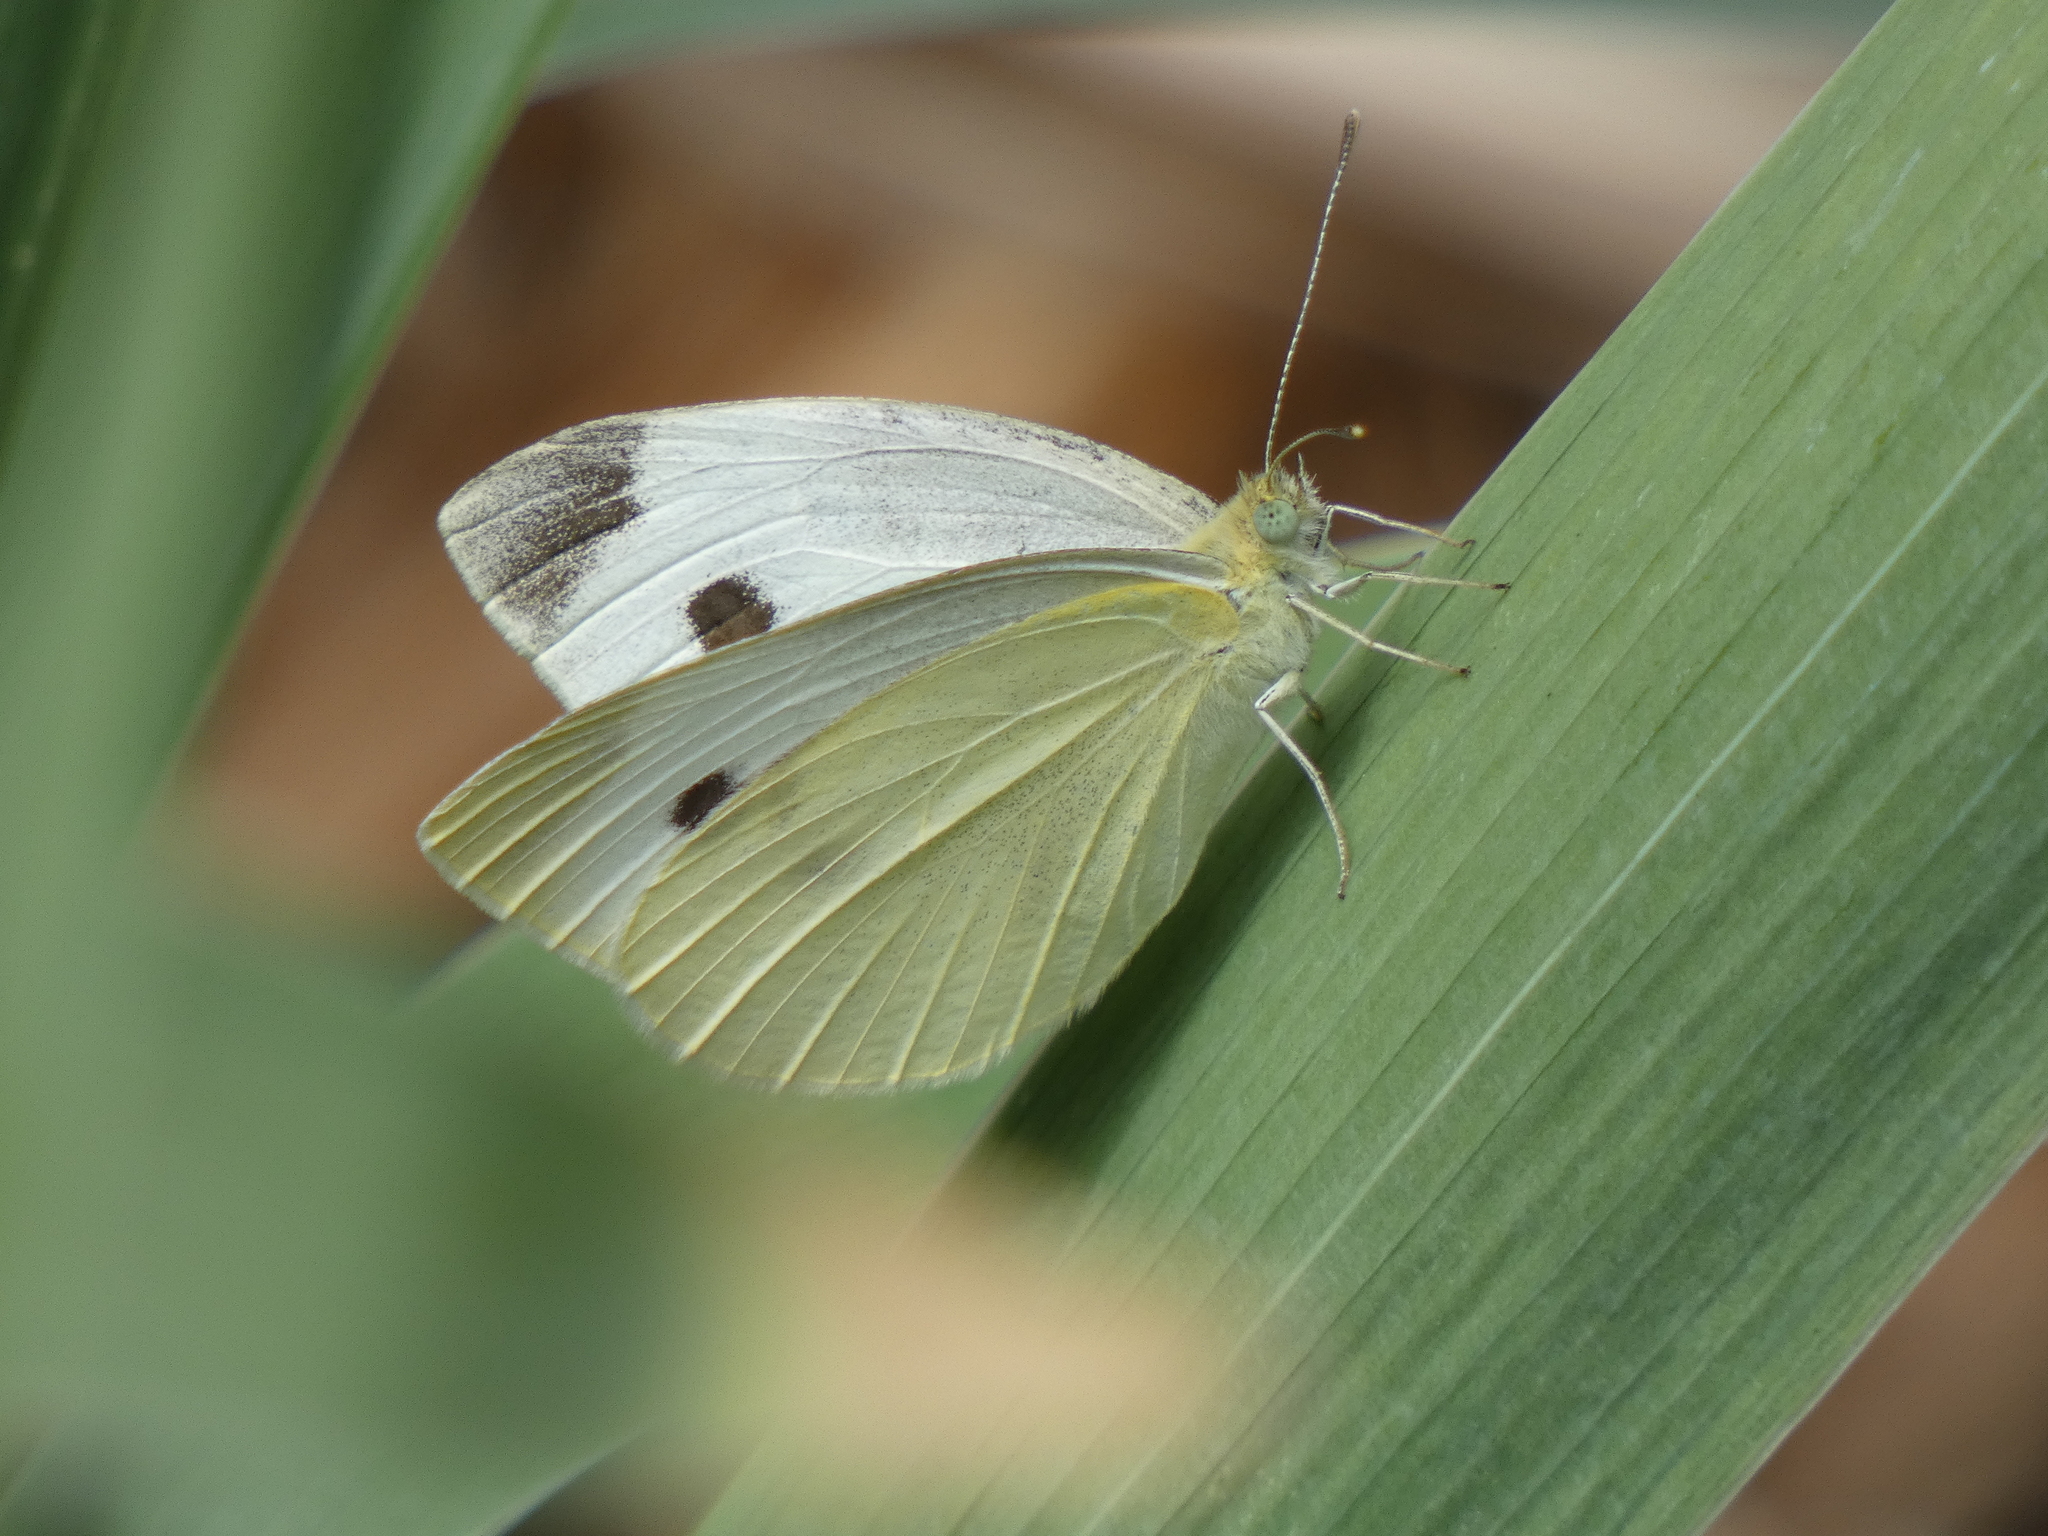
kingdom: Animalia
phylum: Arthropoda
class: Insecta
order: Lepidoptera
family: Pieridae
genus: Pieris
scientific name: Pieris rapae
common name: Small white
